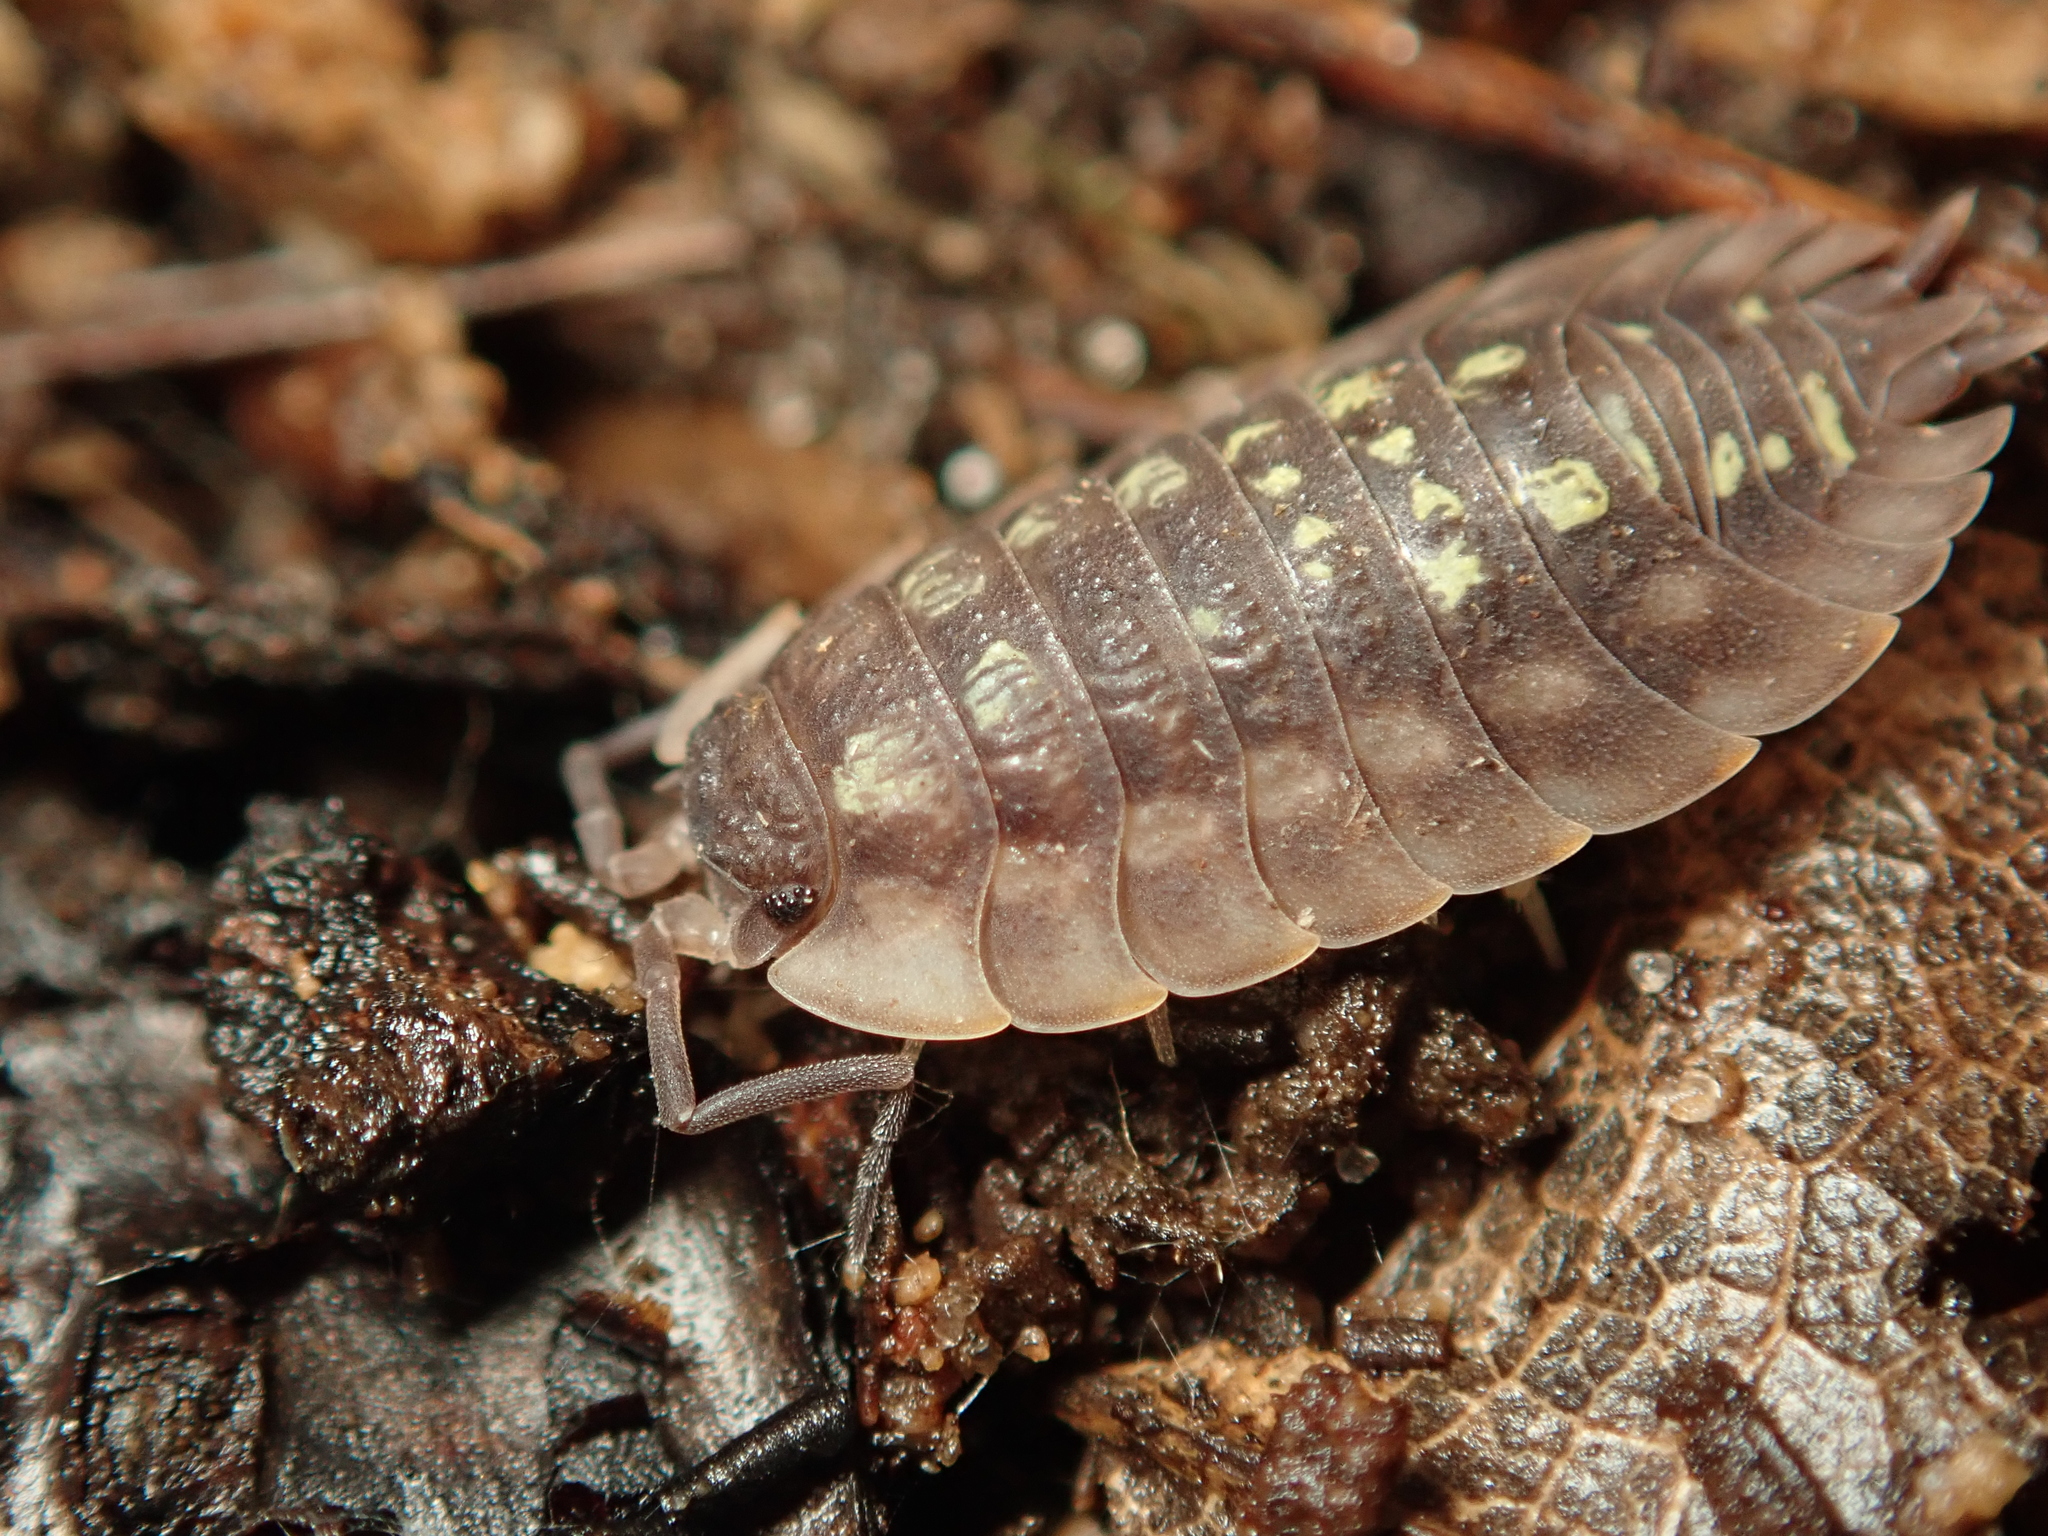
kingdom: Animalia
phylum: Arthropoda
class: Malacostraca
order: Isopoda
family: Oniscidae
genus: Oniscus
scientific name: Oniscus asellus
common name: Common shiny woodlouse
